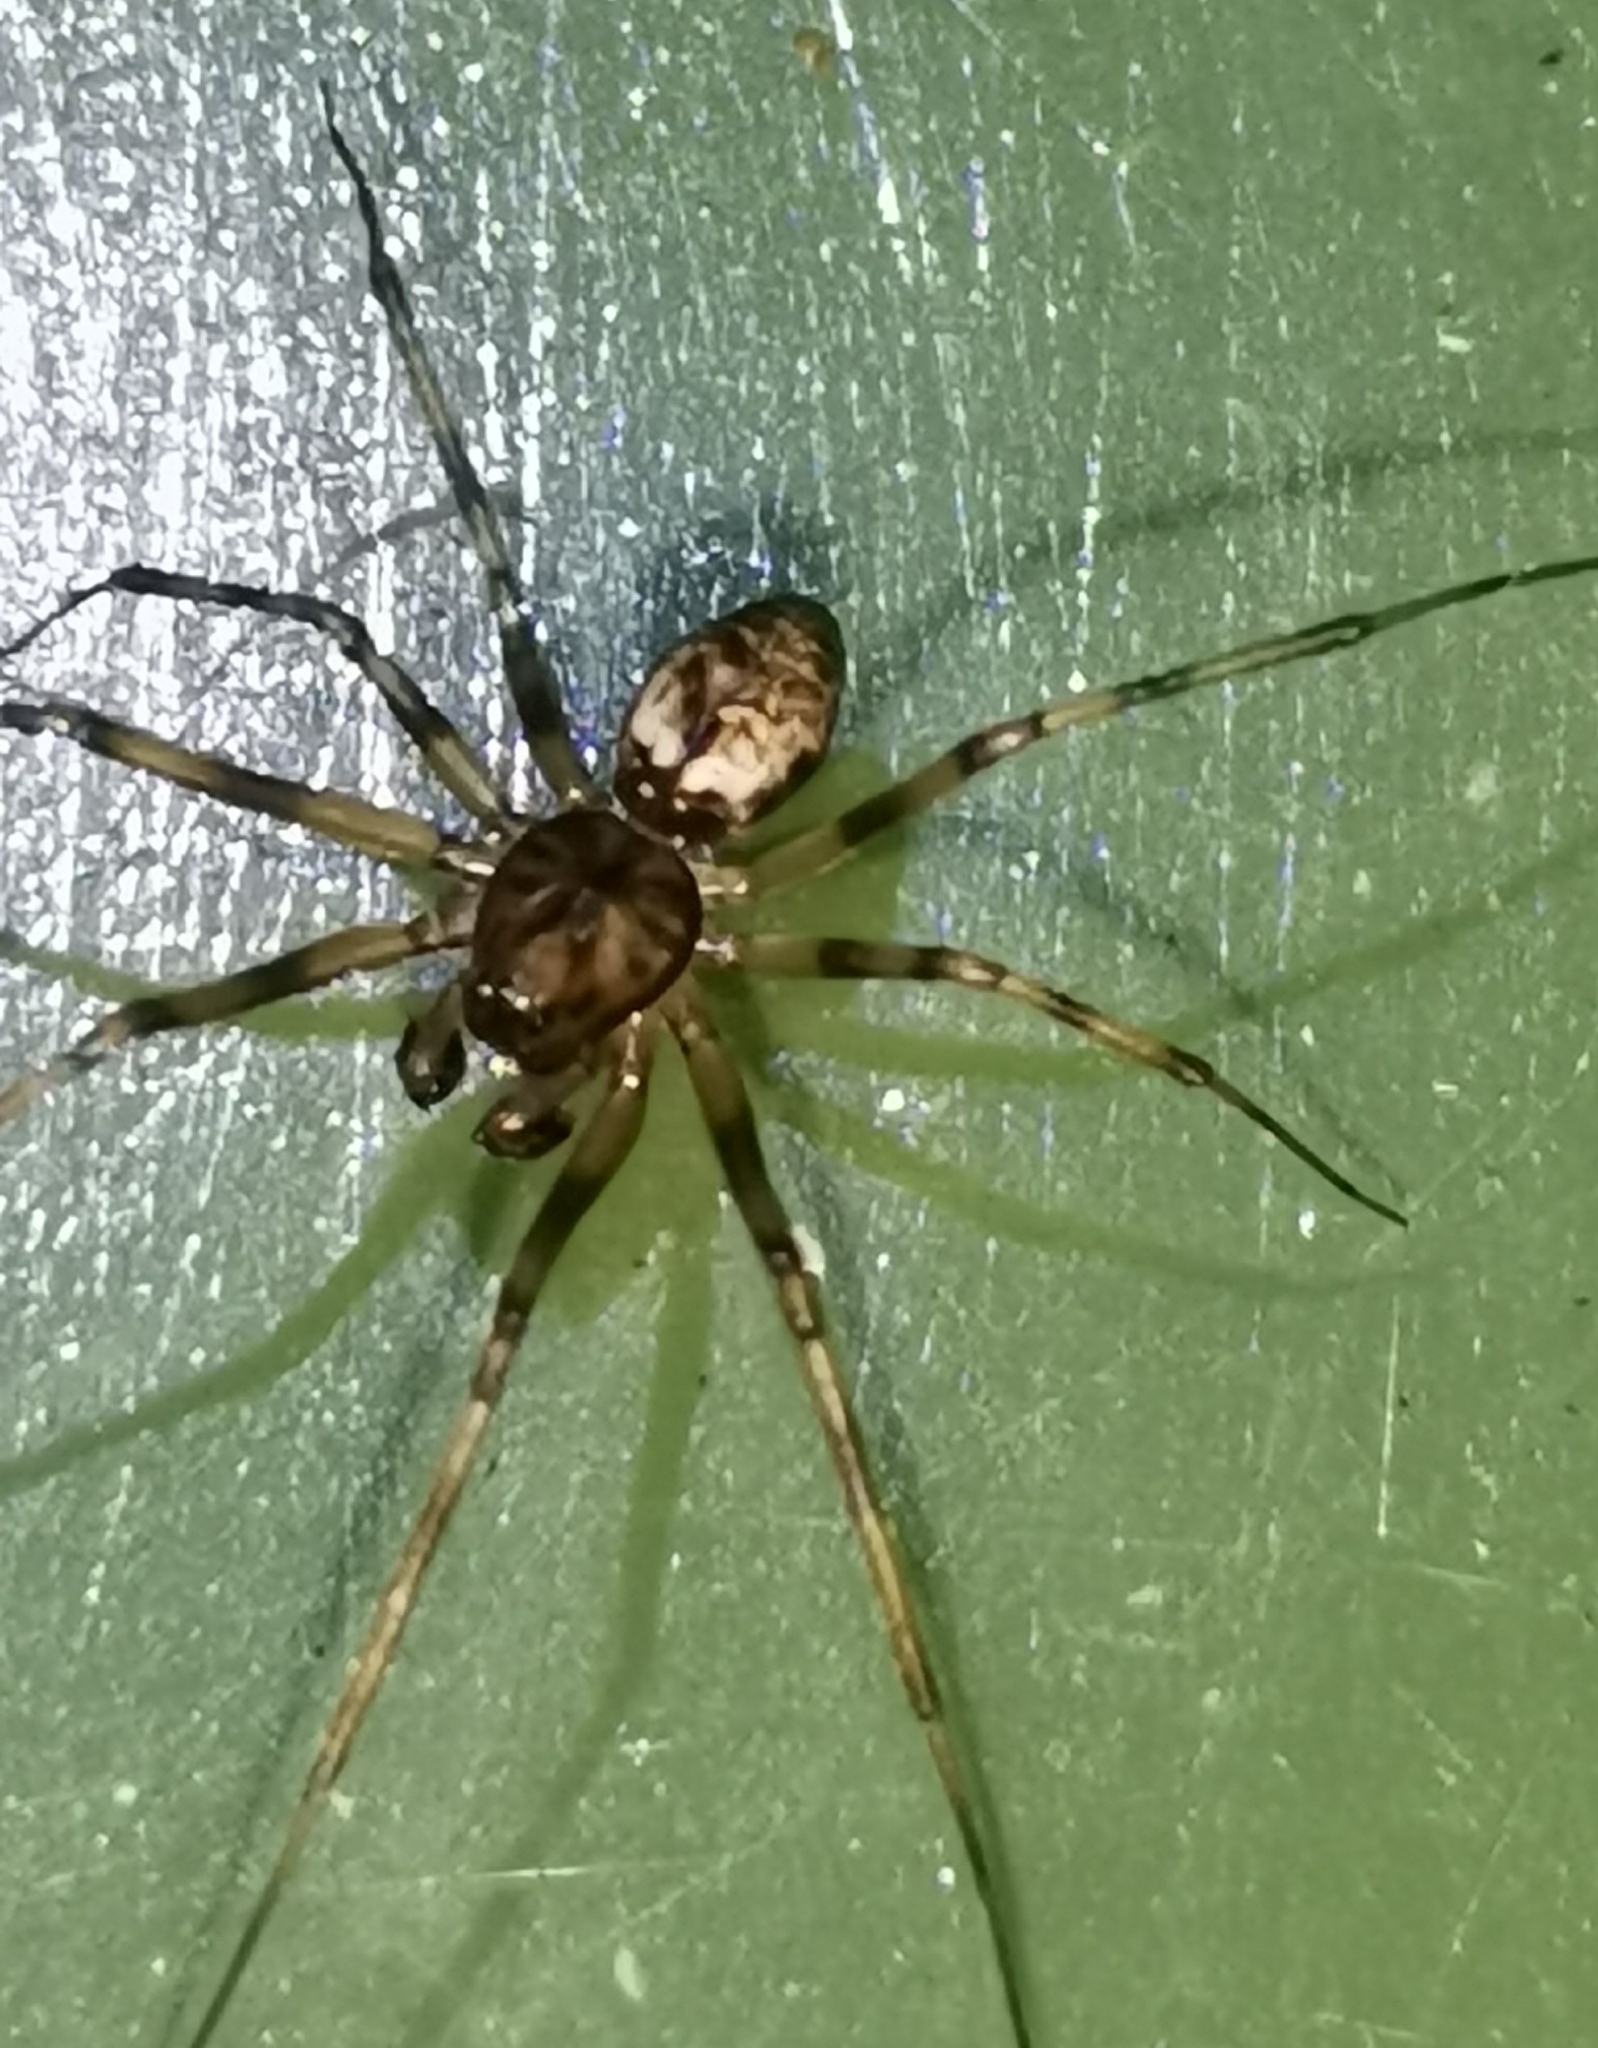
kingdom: Animalia
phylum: Arthropoda
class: Arachnida
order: Araneae
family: Linyphiidae
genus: Drapetisca
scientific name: Drapetisca socialis
